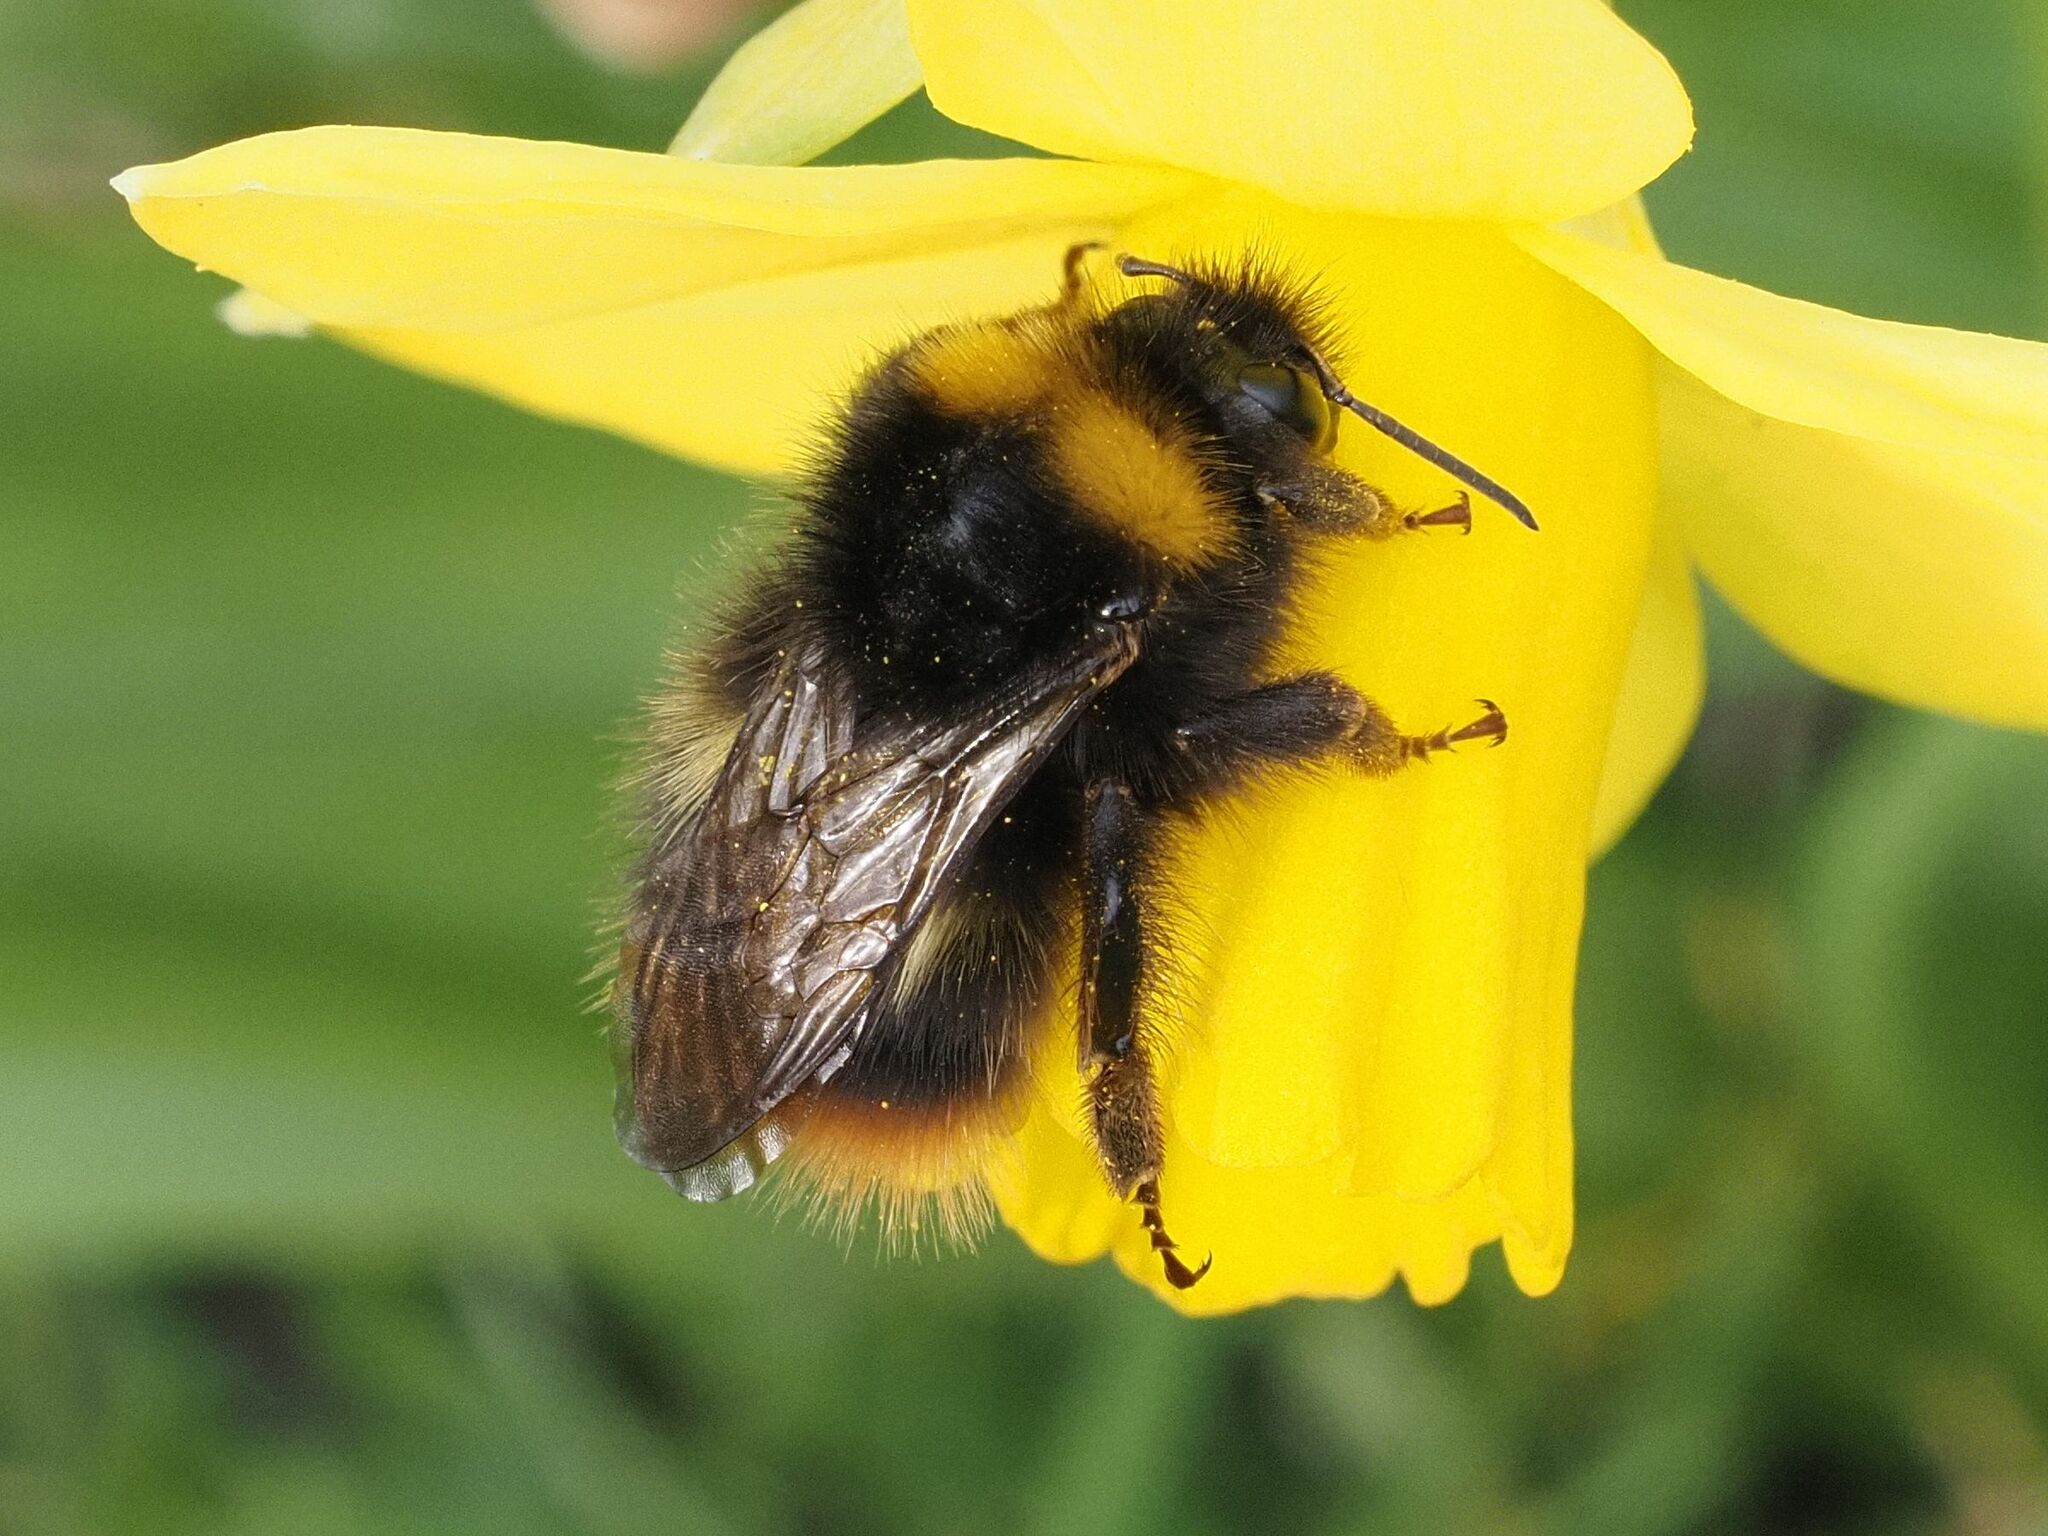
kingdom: Animalia
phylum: Arthropoda
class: Insecta
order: Hymenoptera
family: Apidae
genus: Bombus
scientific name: Bombus pratorum
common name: Early humble-bee
